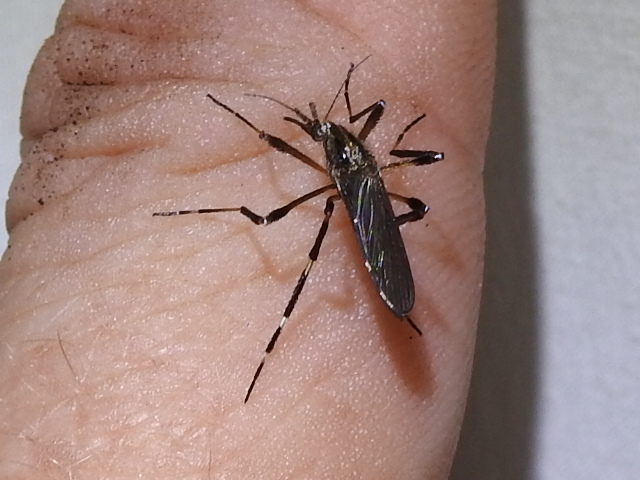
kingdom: Animalia
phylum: Arthropoda
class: Insecta
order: Diptera
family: Culicidae
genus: Psorophora
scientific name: Psorophora ciliata
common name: Gallinipper
